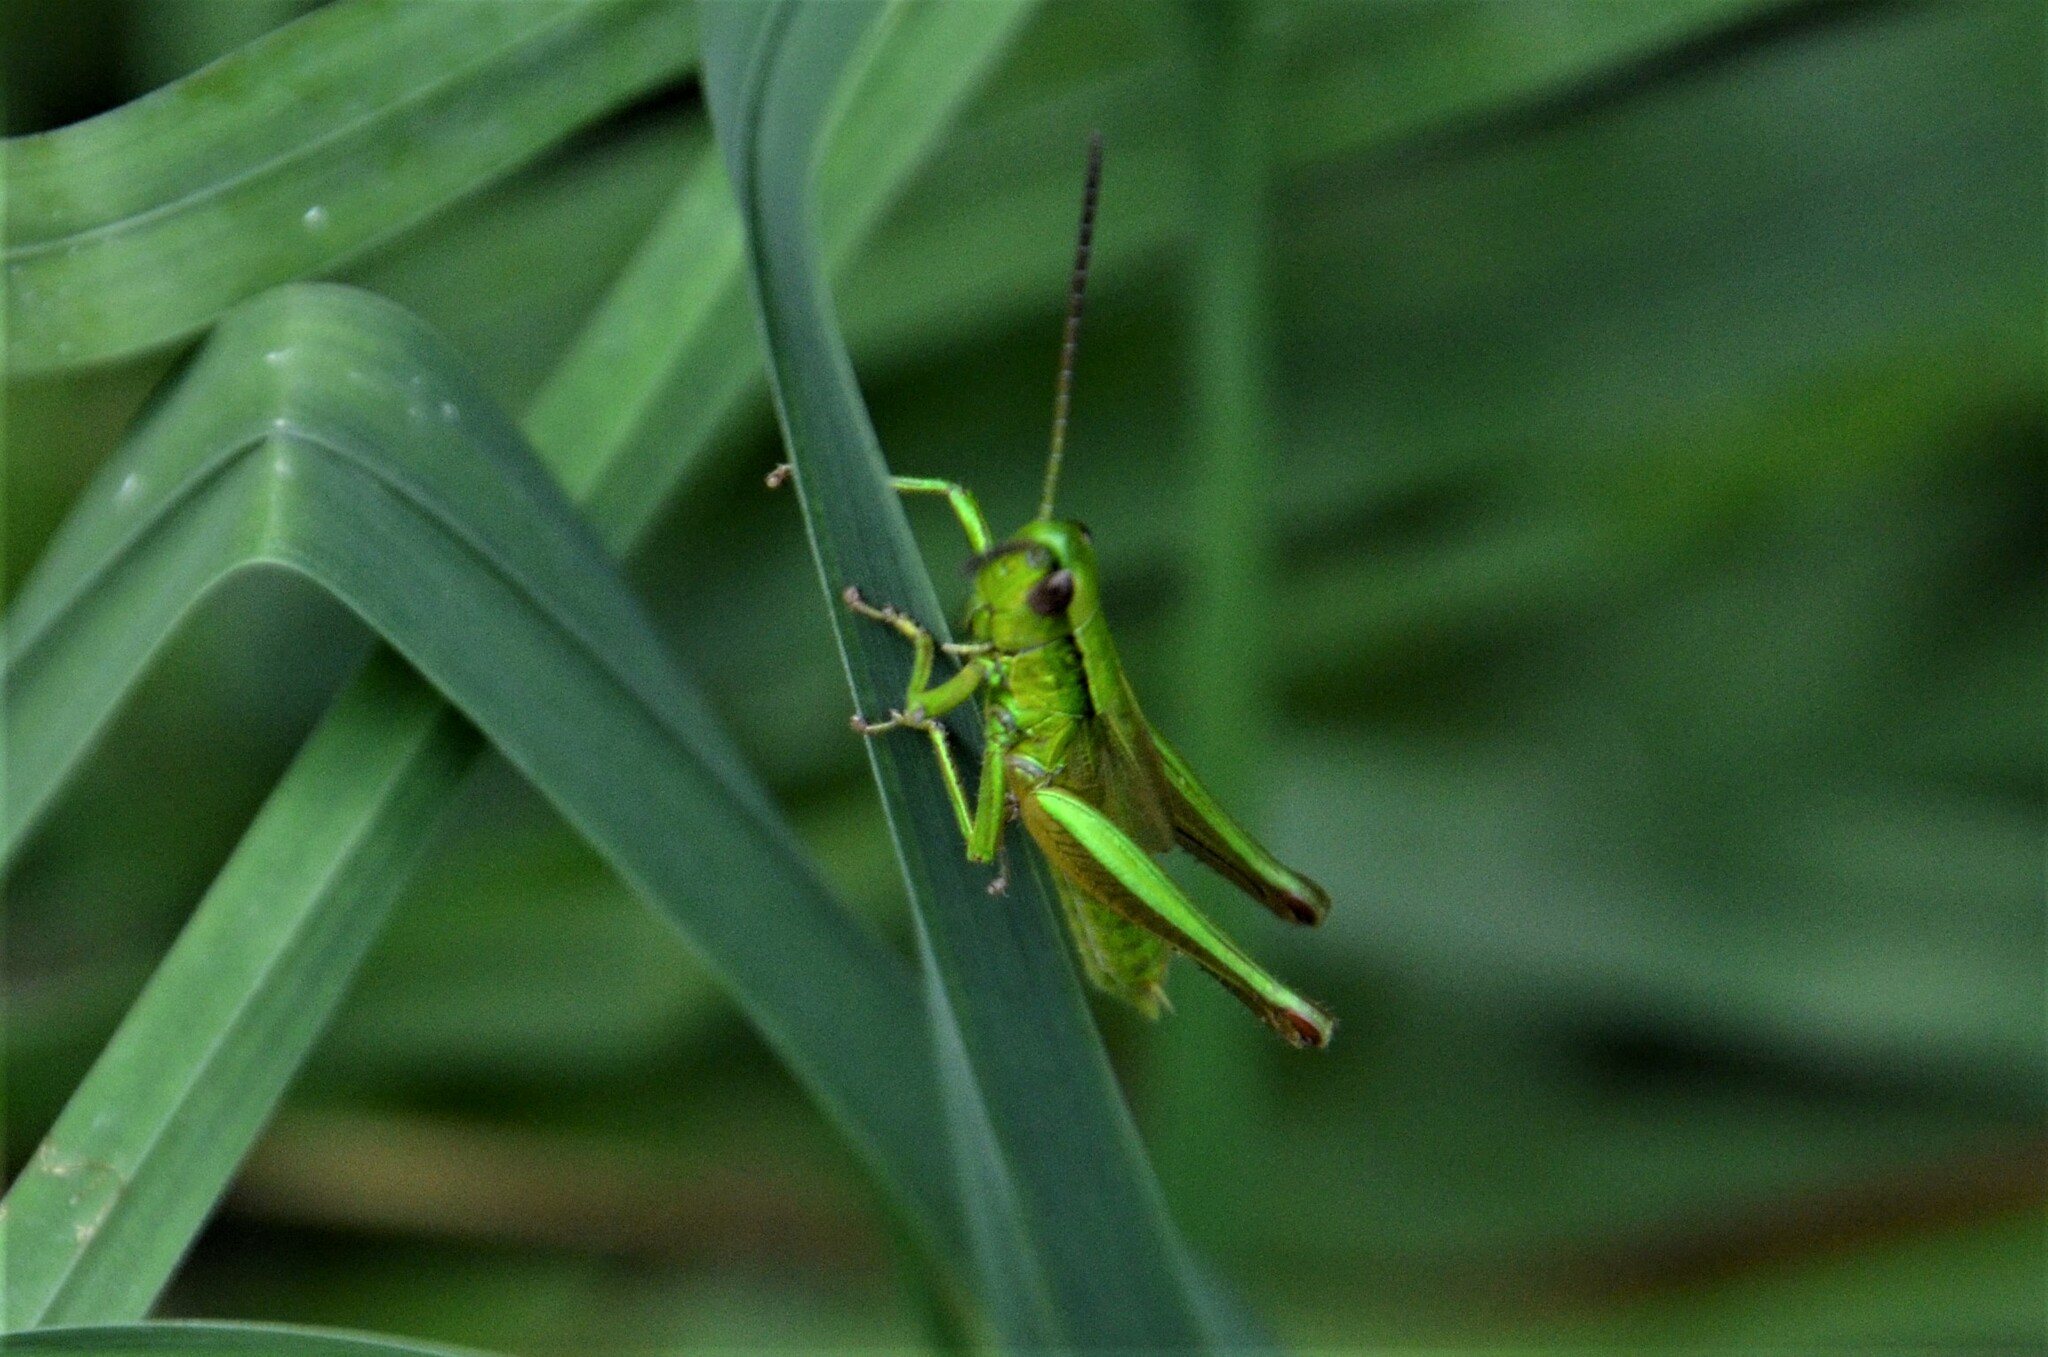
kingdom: Animalia
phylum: Arthropoda
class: Insecta
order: Orthoptera
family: Acrididae
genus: Euthystira
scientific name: Euthystira brachyptera
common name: Small gold grasshopper
